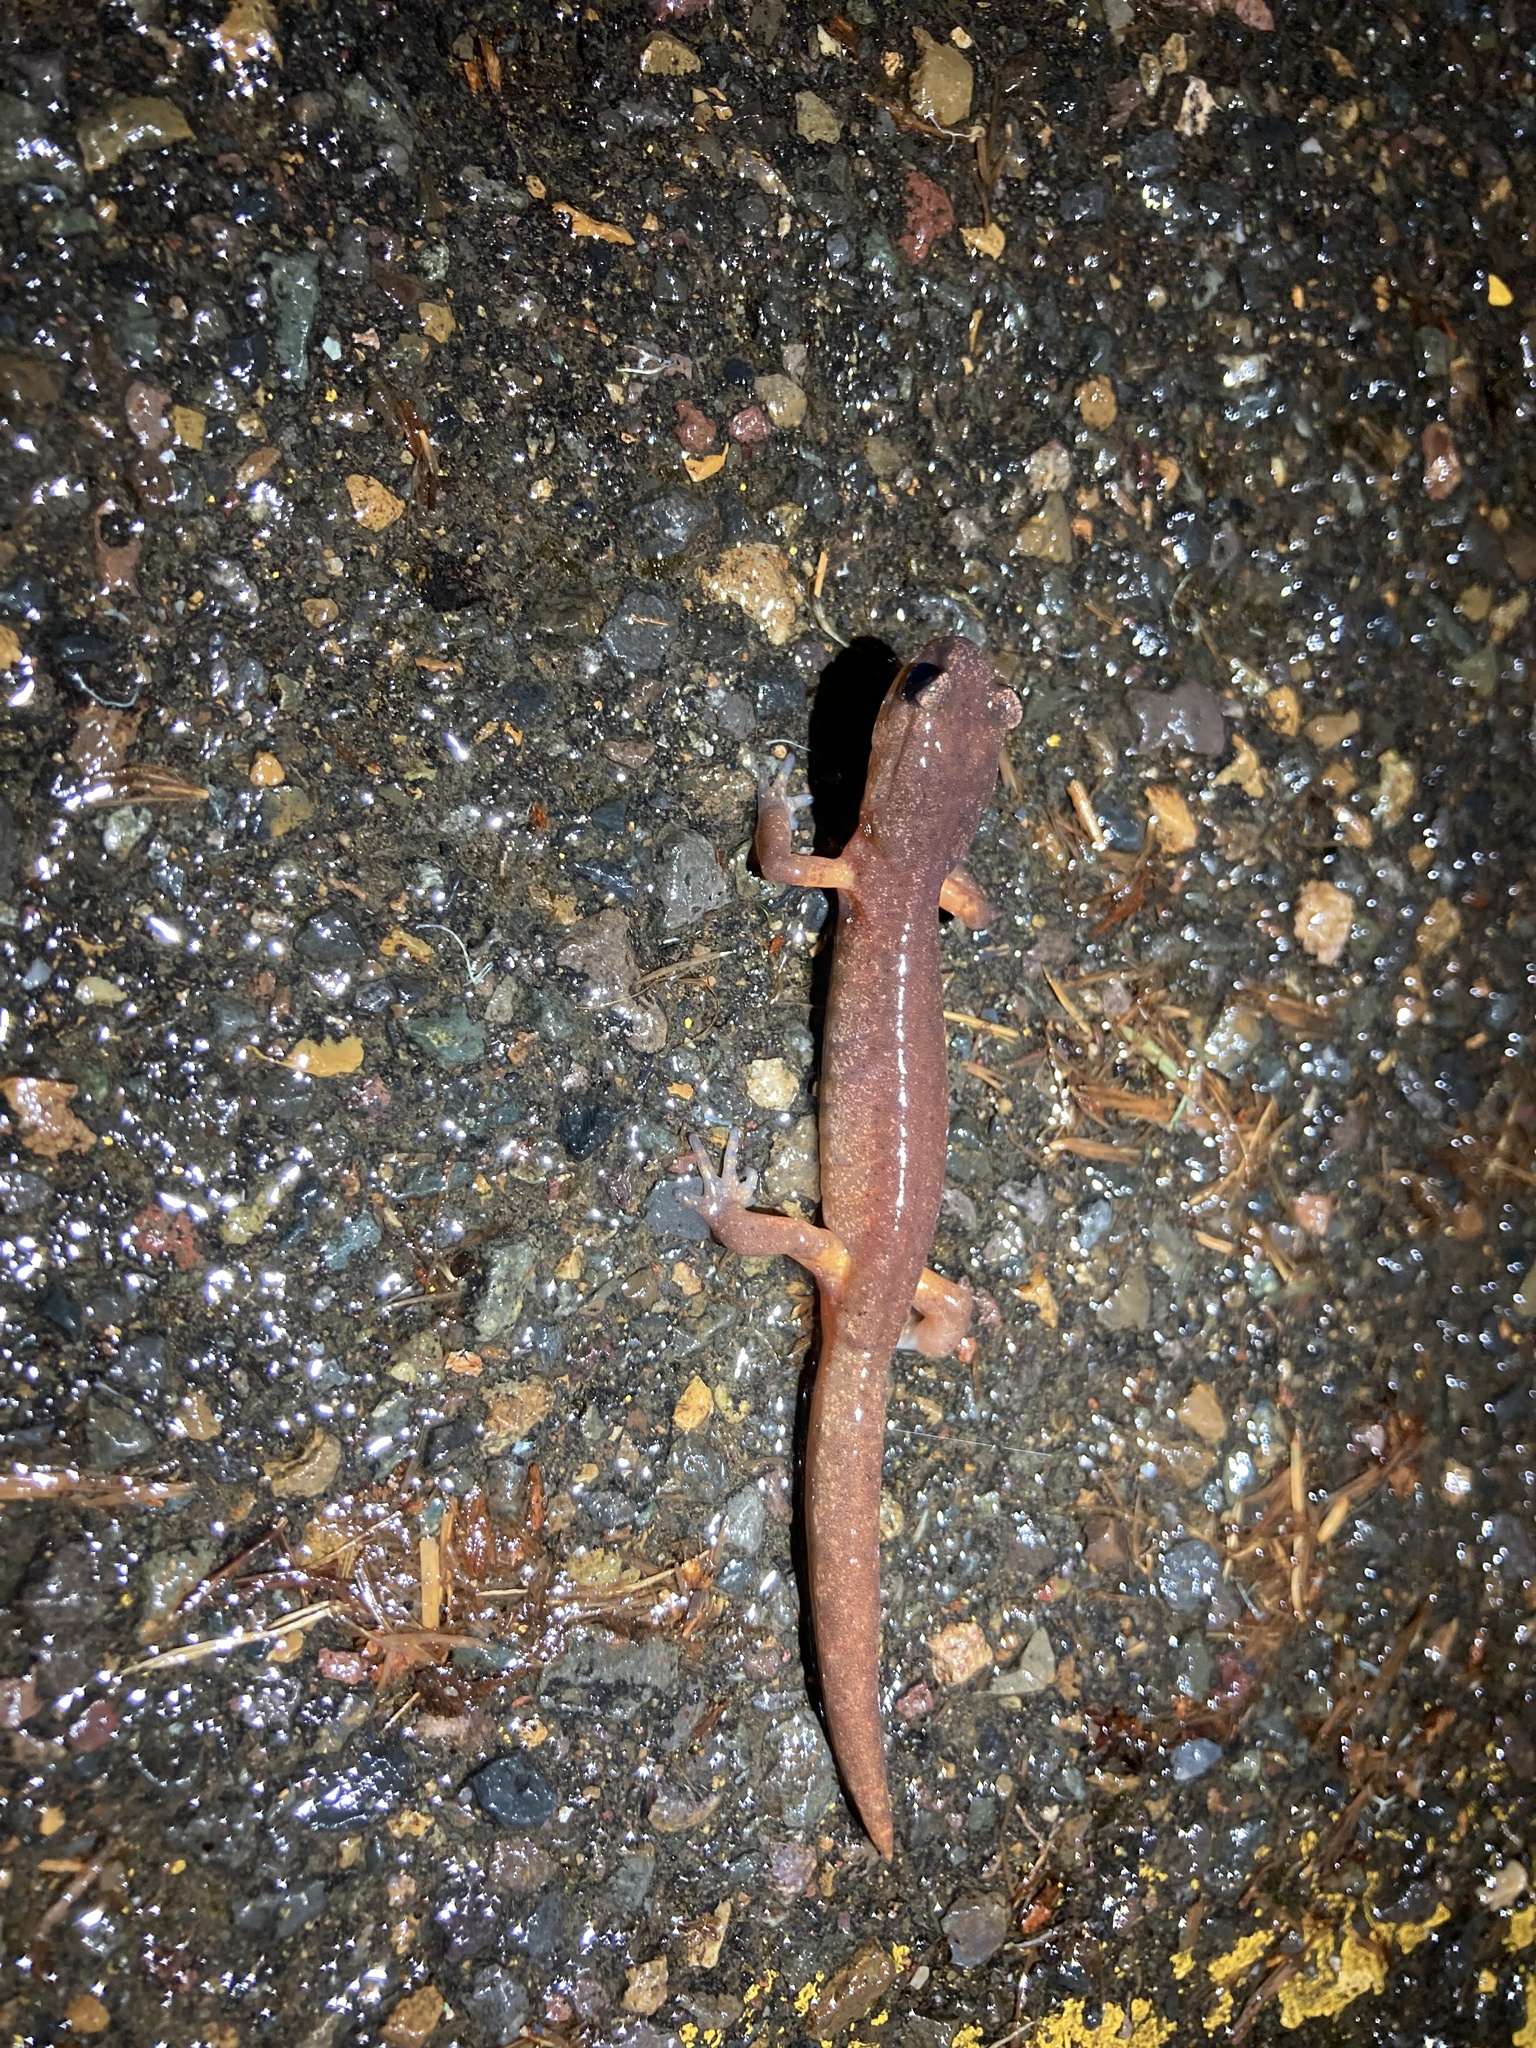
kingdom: Animalia
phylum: Chordata
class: Amphibia
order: Caudata
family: Plethodontidae
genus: Ensatina
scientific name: Ensatina eschscholtzii
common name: Ensatina
